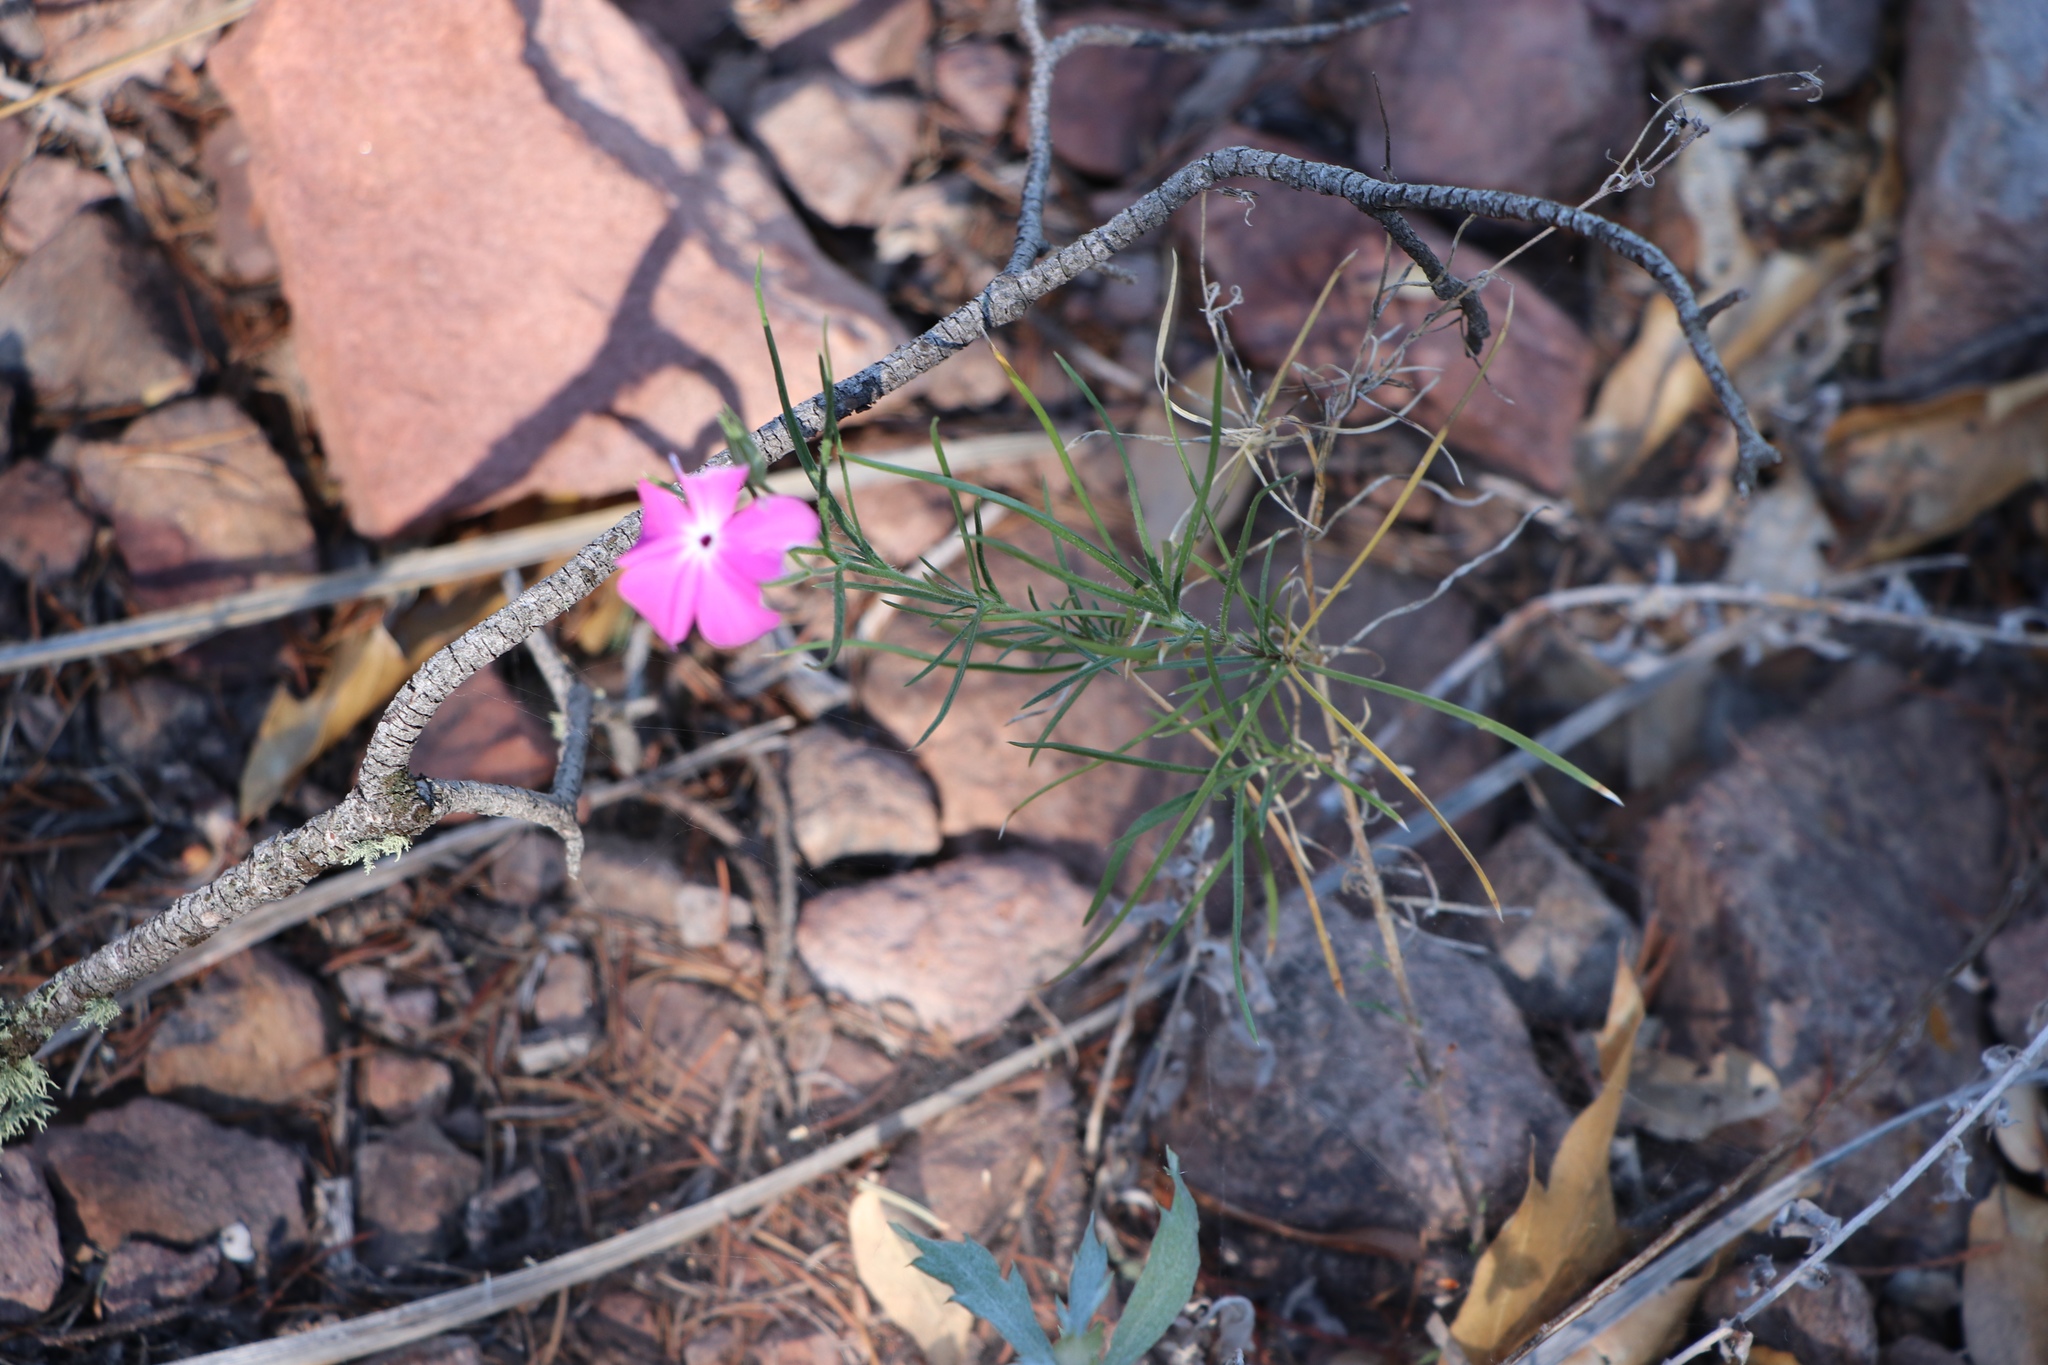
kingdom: Plantae
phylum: Tracheophyta
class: Magnoliopsida
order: Ericales
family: Polemoniaceae
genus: Phlox
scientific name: Phlox nana
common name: Santa fe phlox
